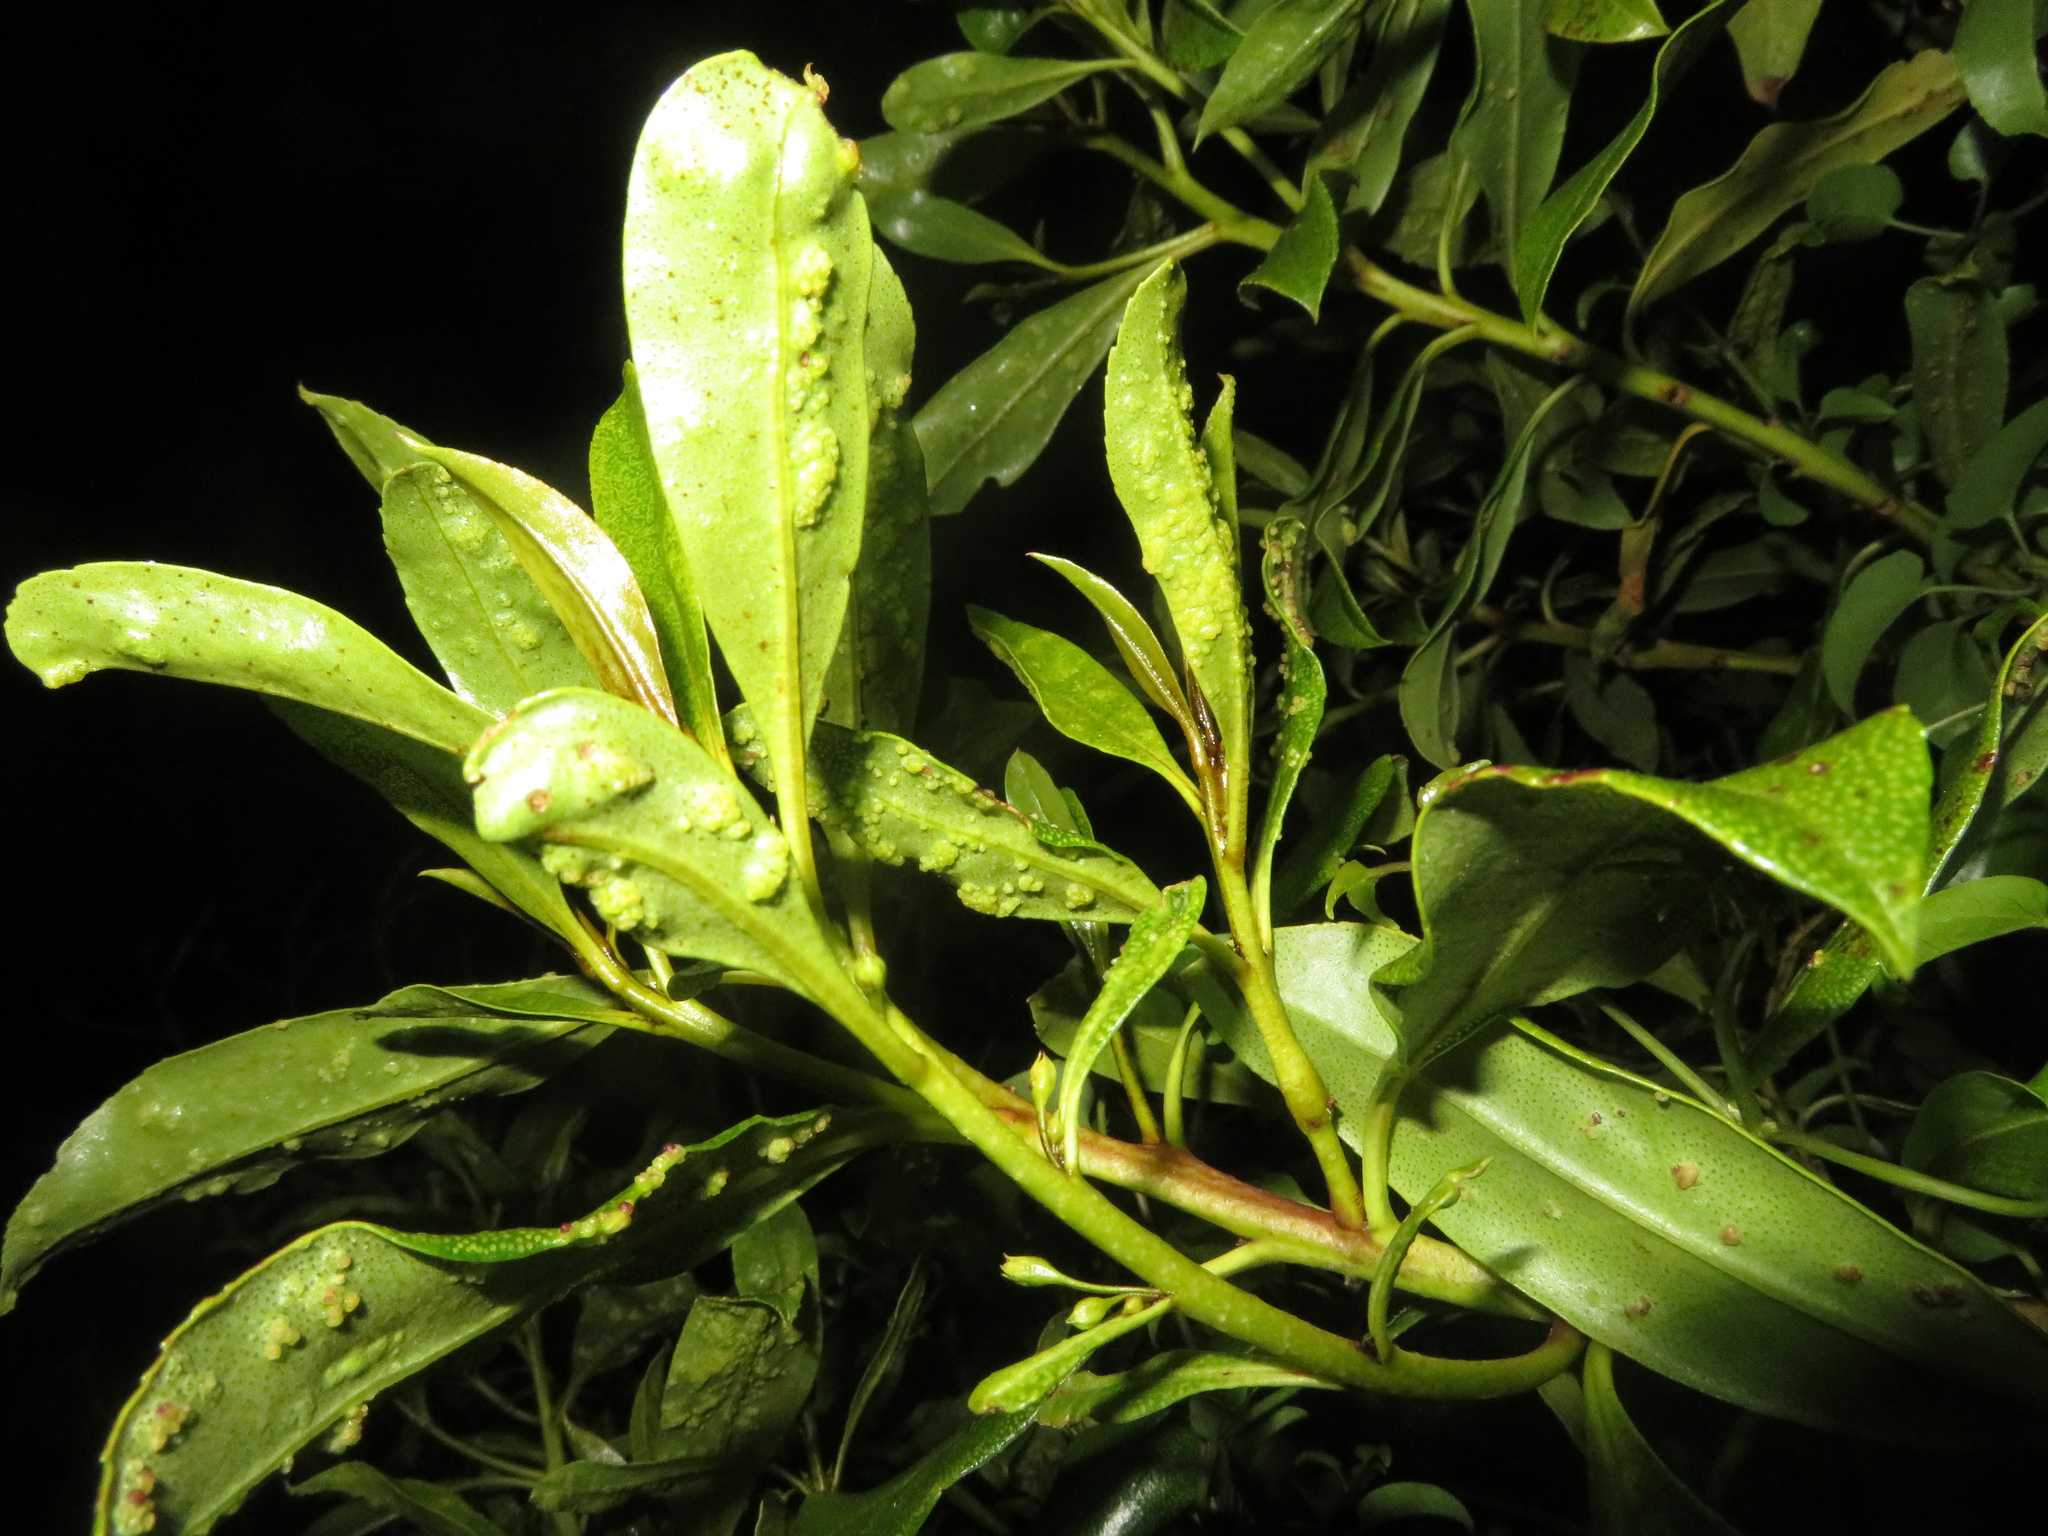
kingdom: Animalia
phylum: Arthropoda
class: Arachnida
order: Trombidiformes
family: Eriophyidae
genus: Aceria
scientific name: Aceria healyi
